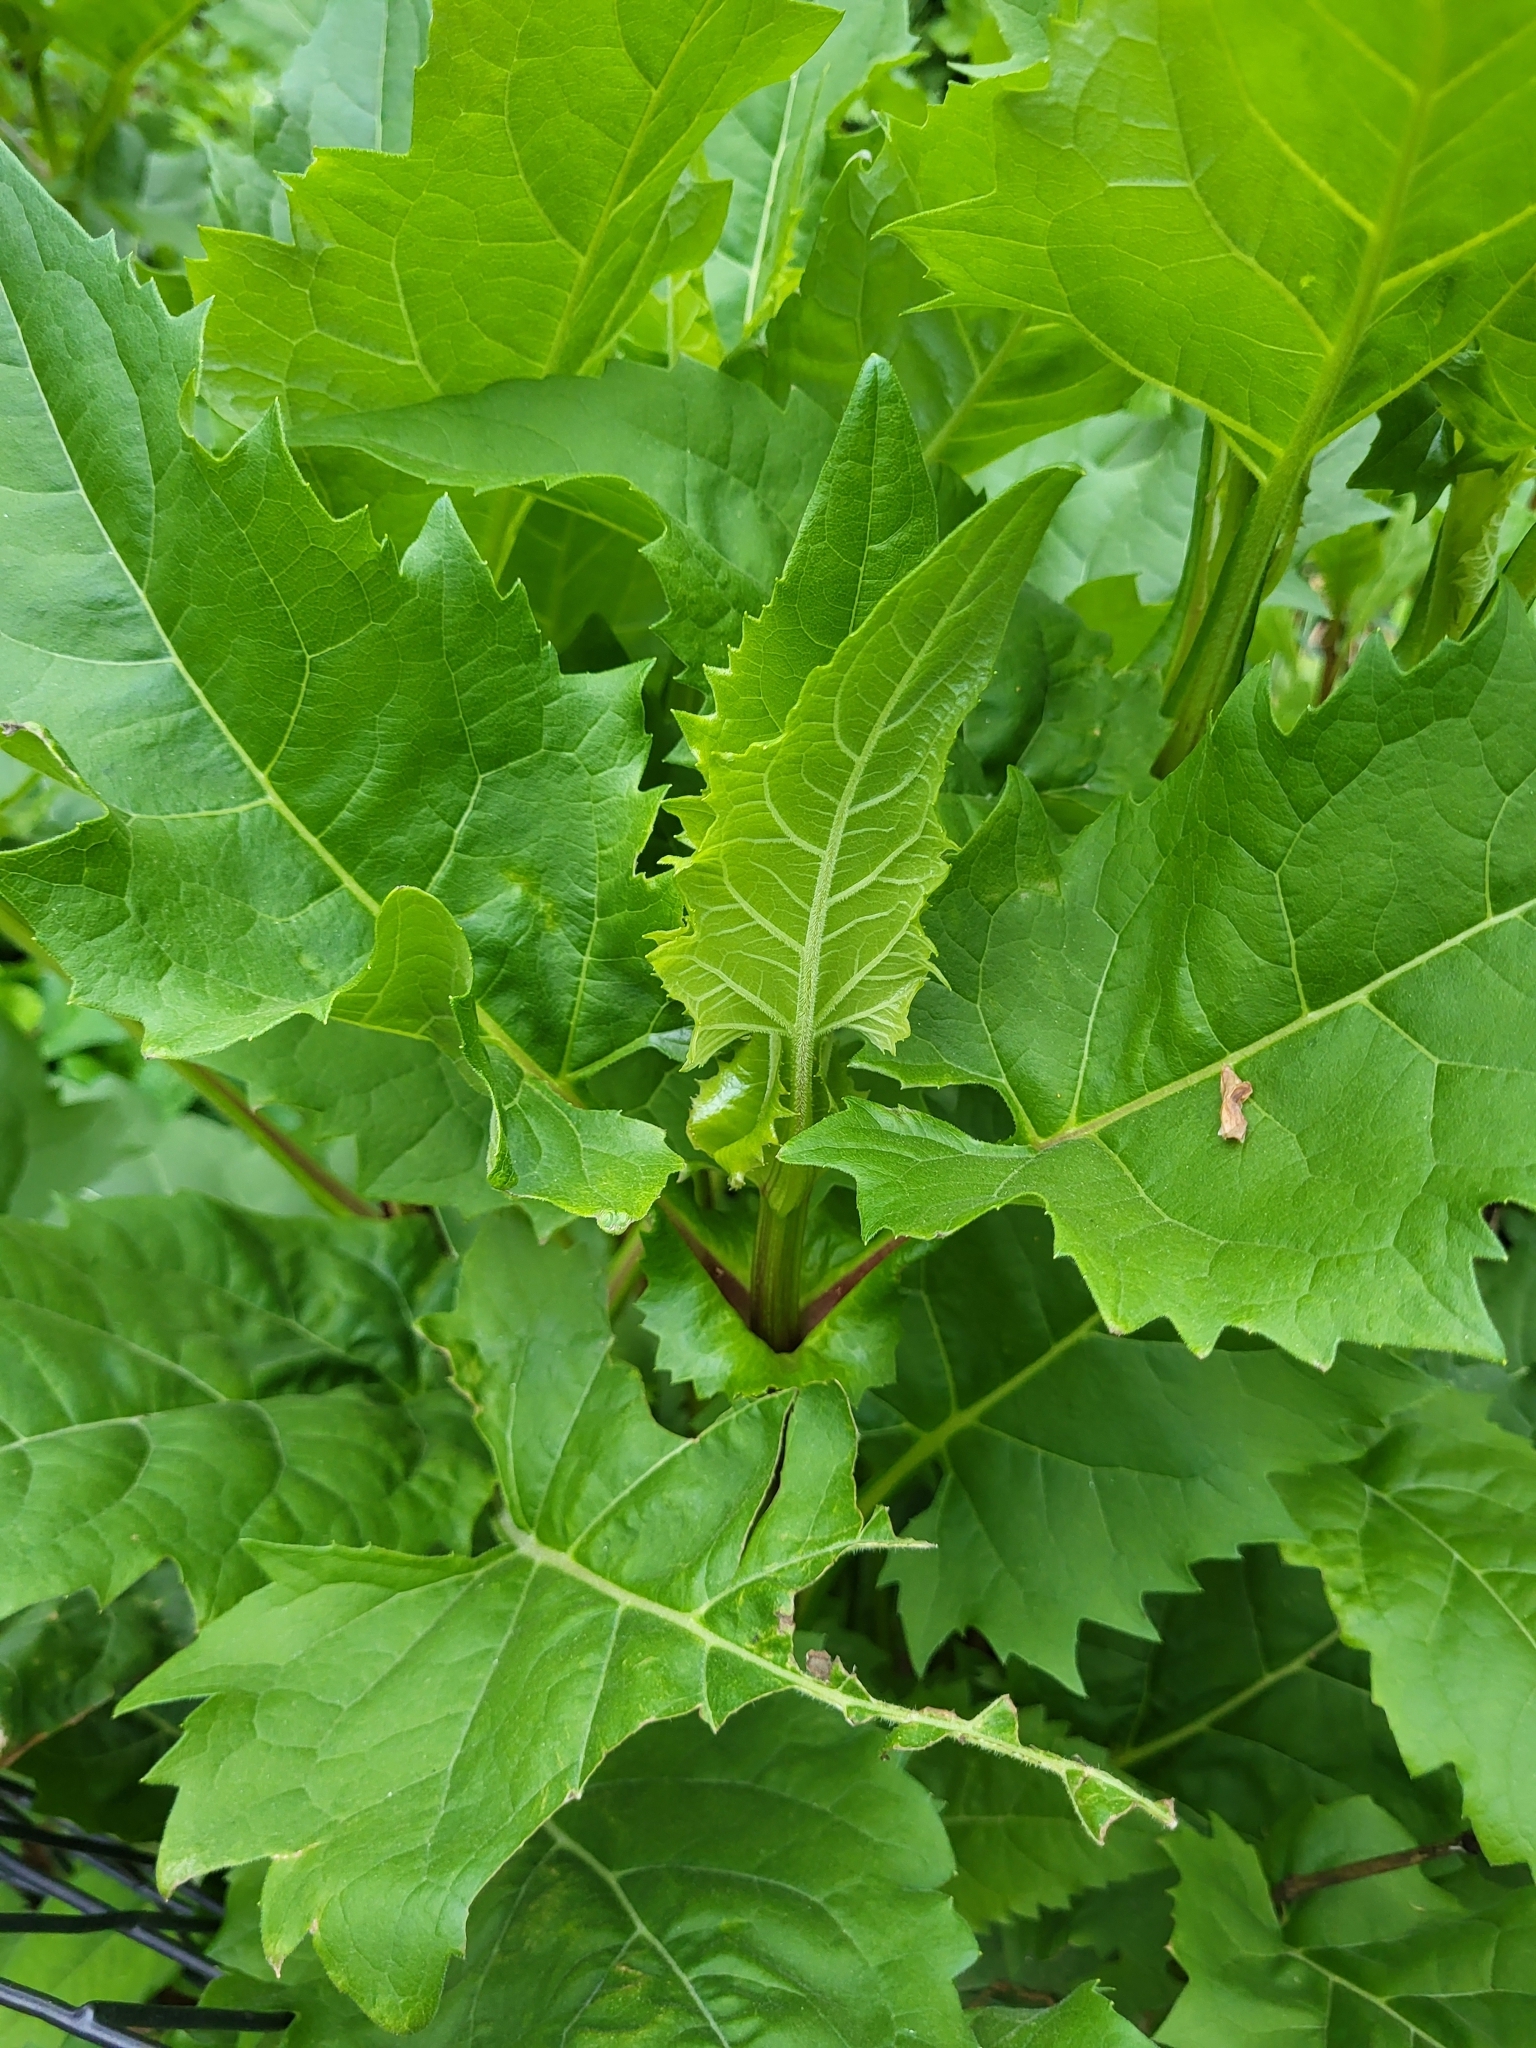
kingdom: Plantae
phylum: Tracheophyta
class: Magnoliopsida
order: Asterales
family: Asteraceae
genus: Silphium
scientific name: Silphium perfoliatum
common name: Cup-plant
